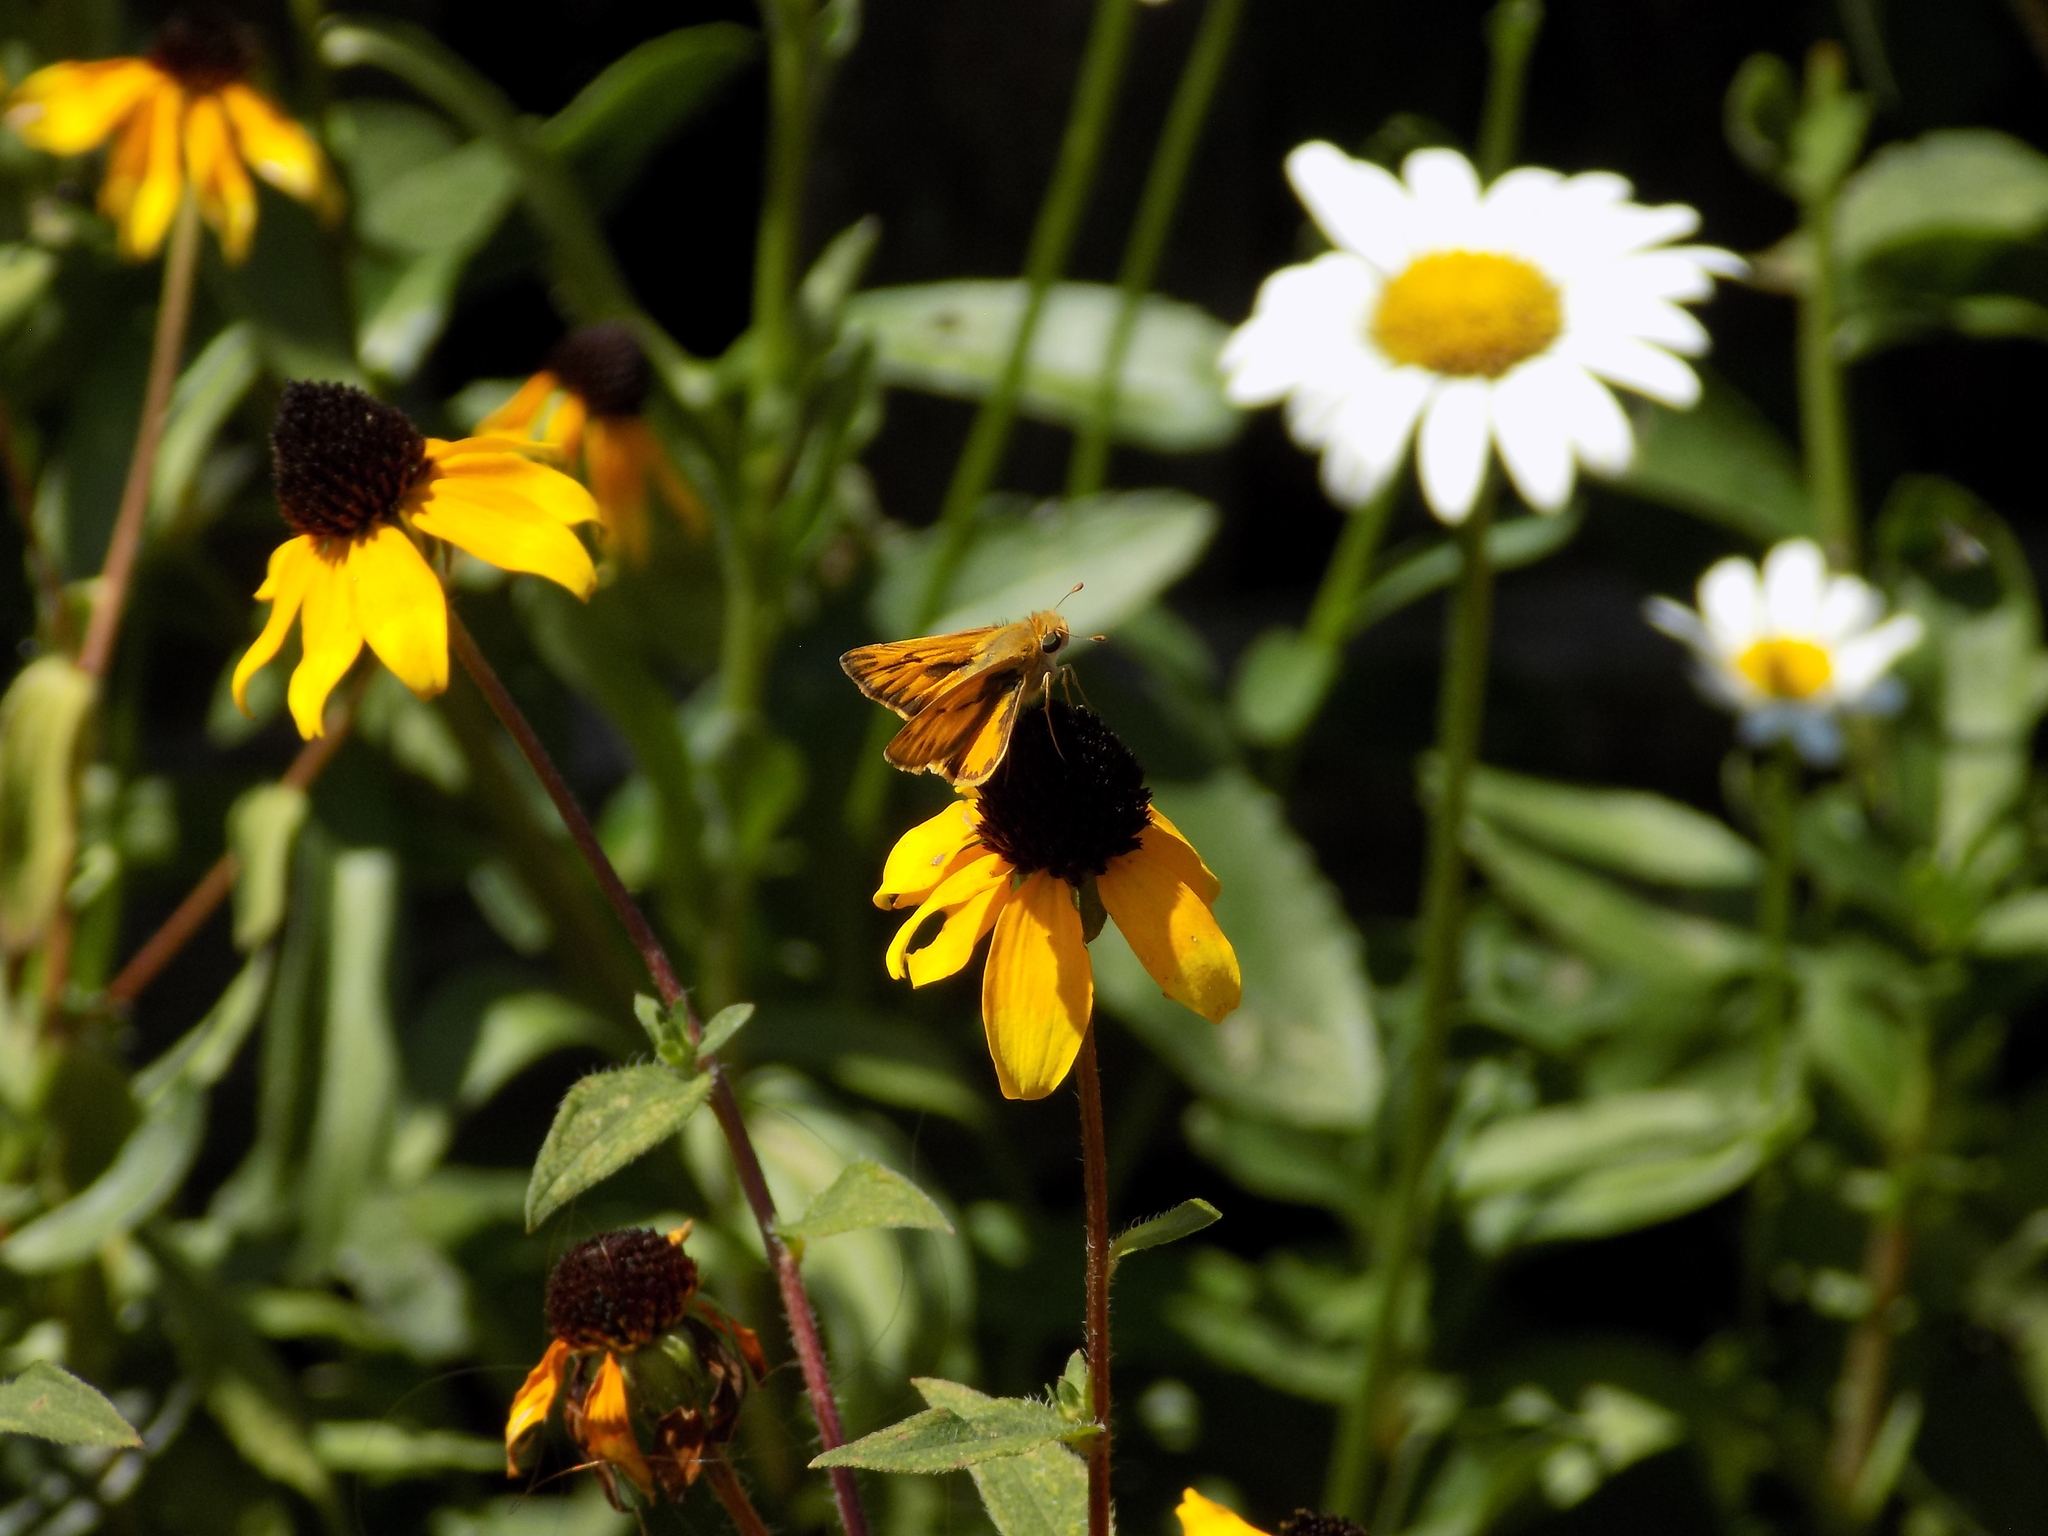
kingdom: Animalia
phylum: Arthropoda
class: Insecta
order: Lepidoptera
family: Hesperiidae
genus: Hylephila
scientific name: Hylephila phyleus
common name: Fiery skipper
